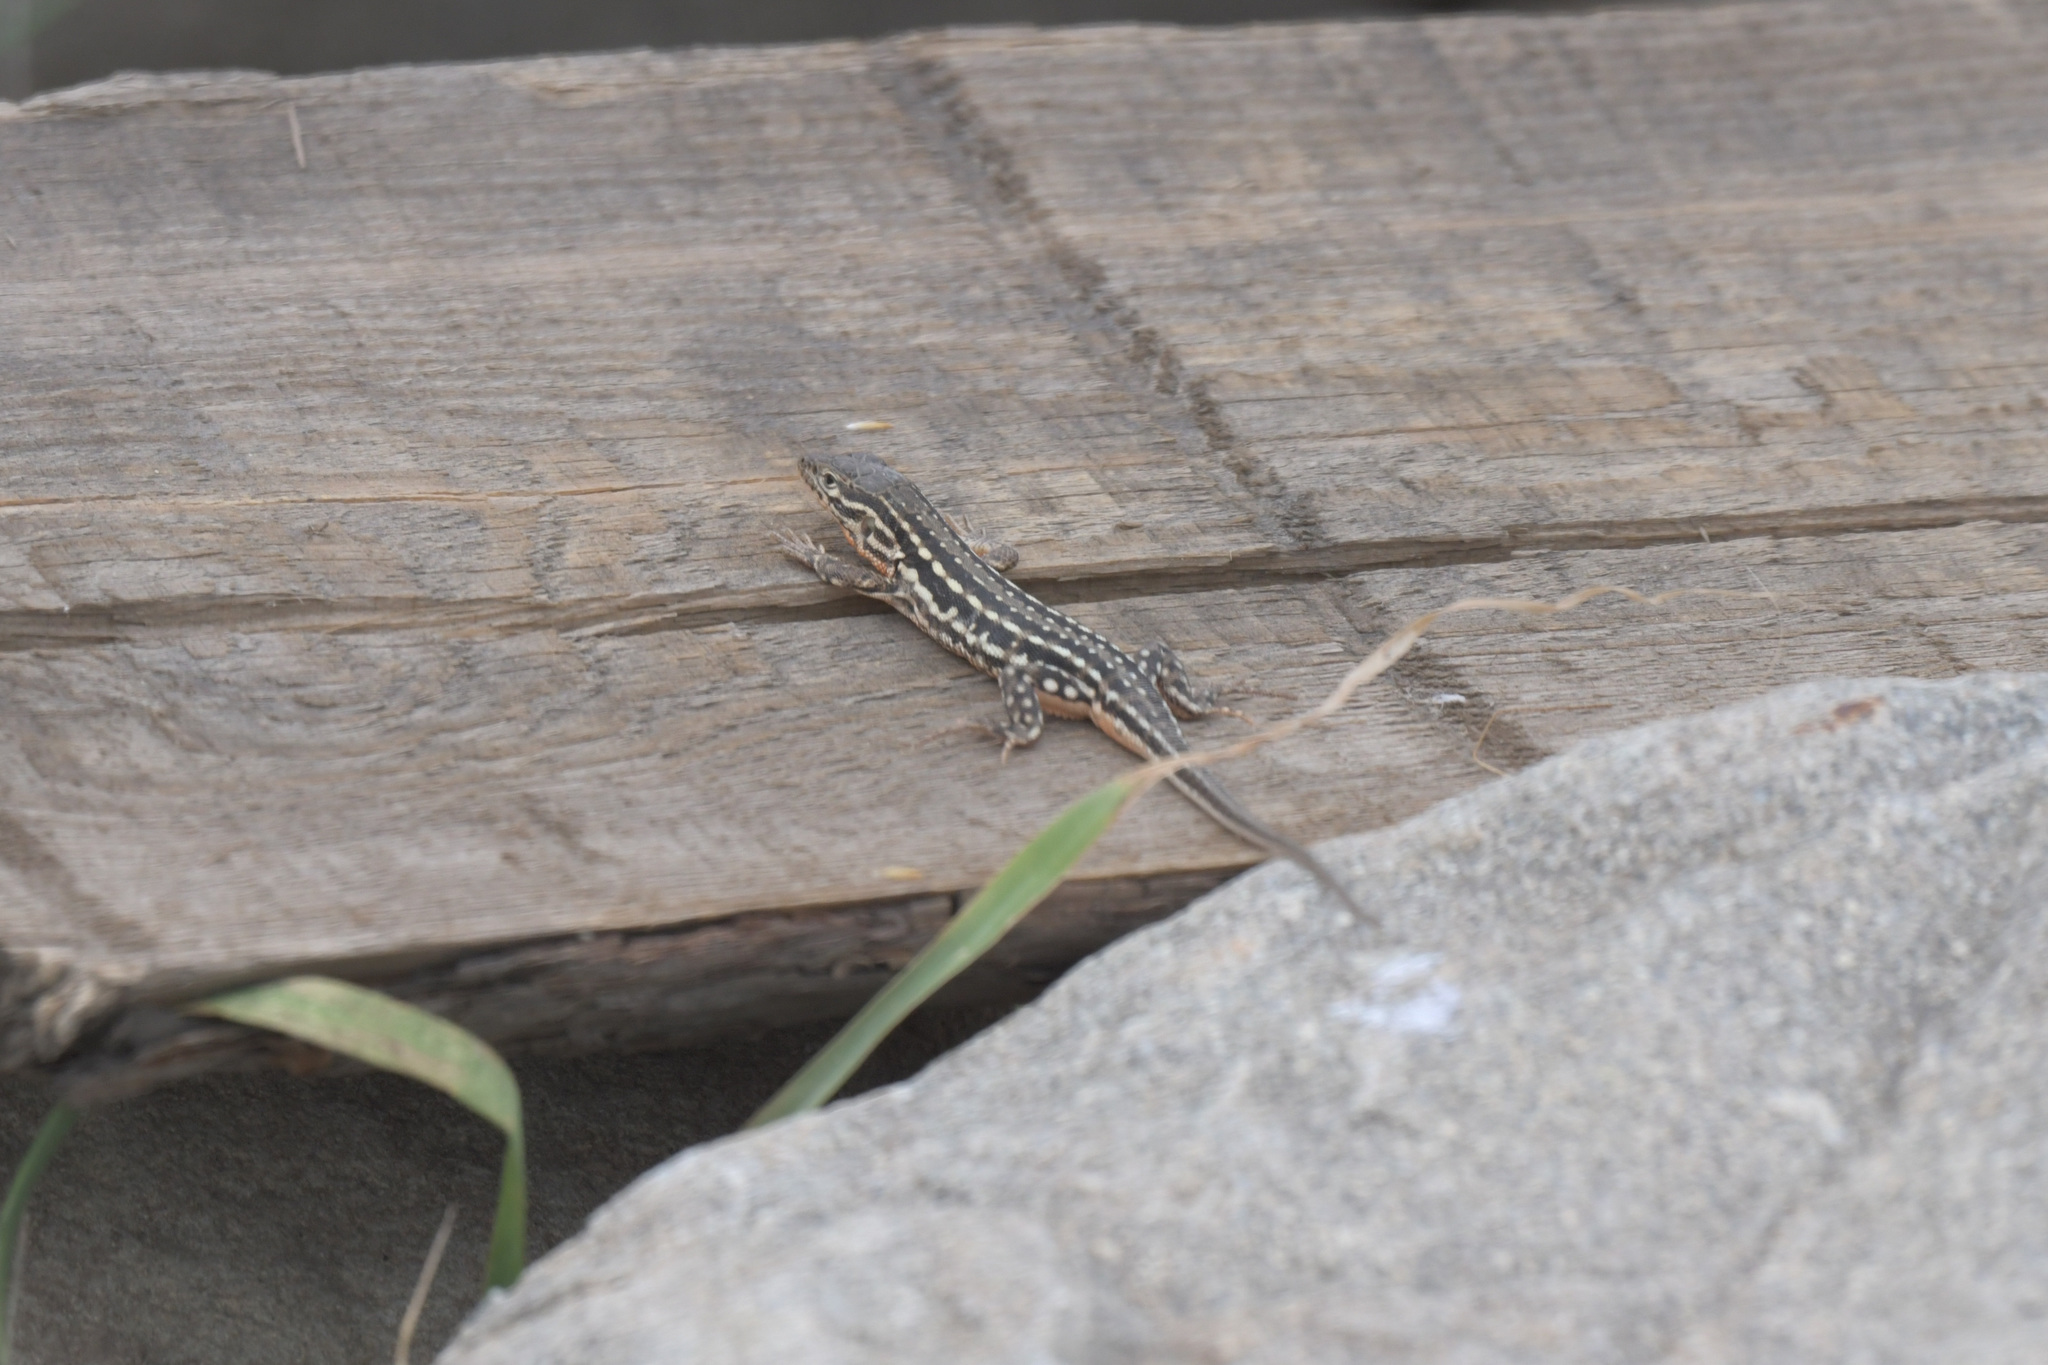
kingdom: Animalia
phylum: Chordata
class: Squamata
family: Lacertidae
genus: Eremias
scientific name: Eremias argus
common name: Mongolia racerunner
